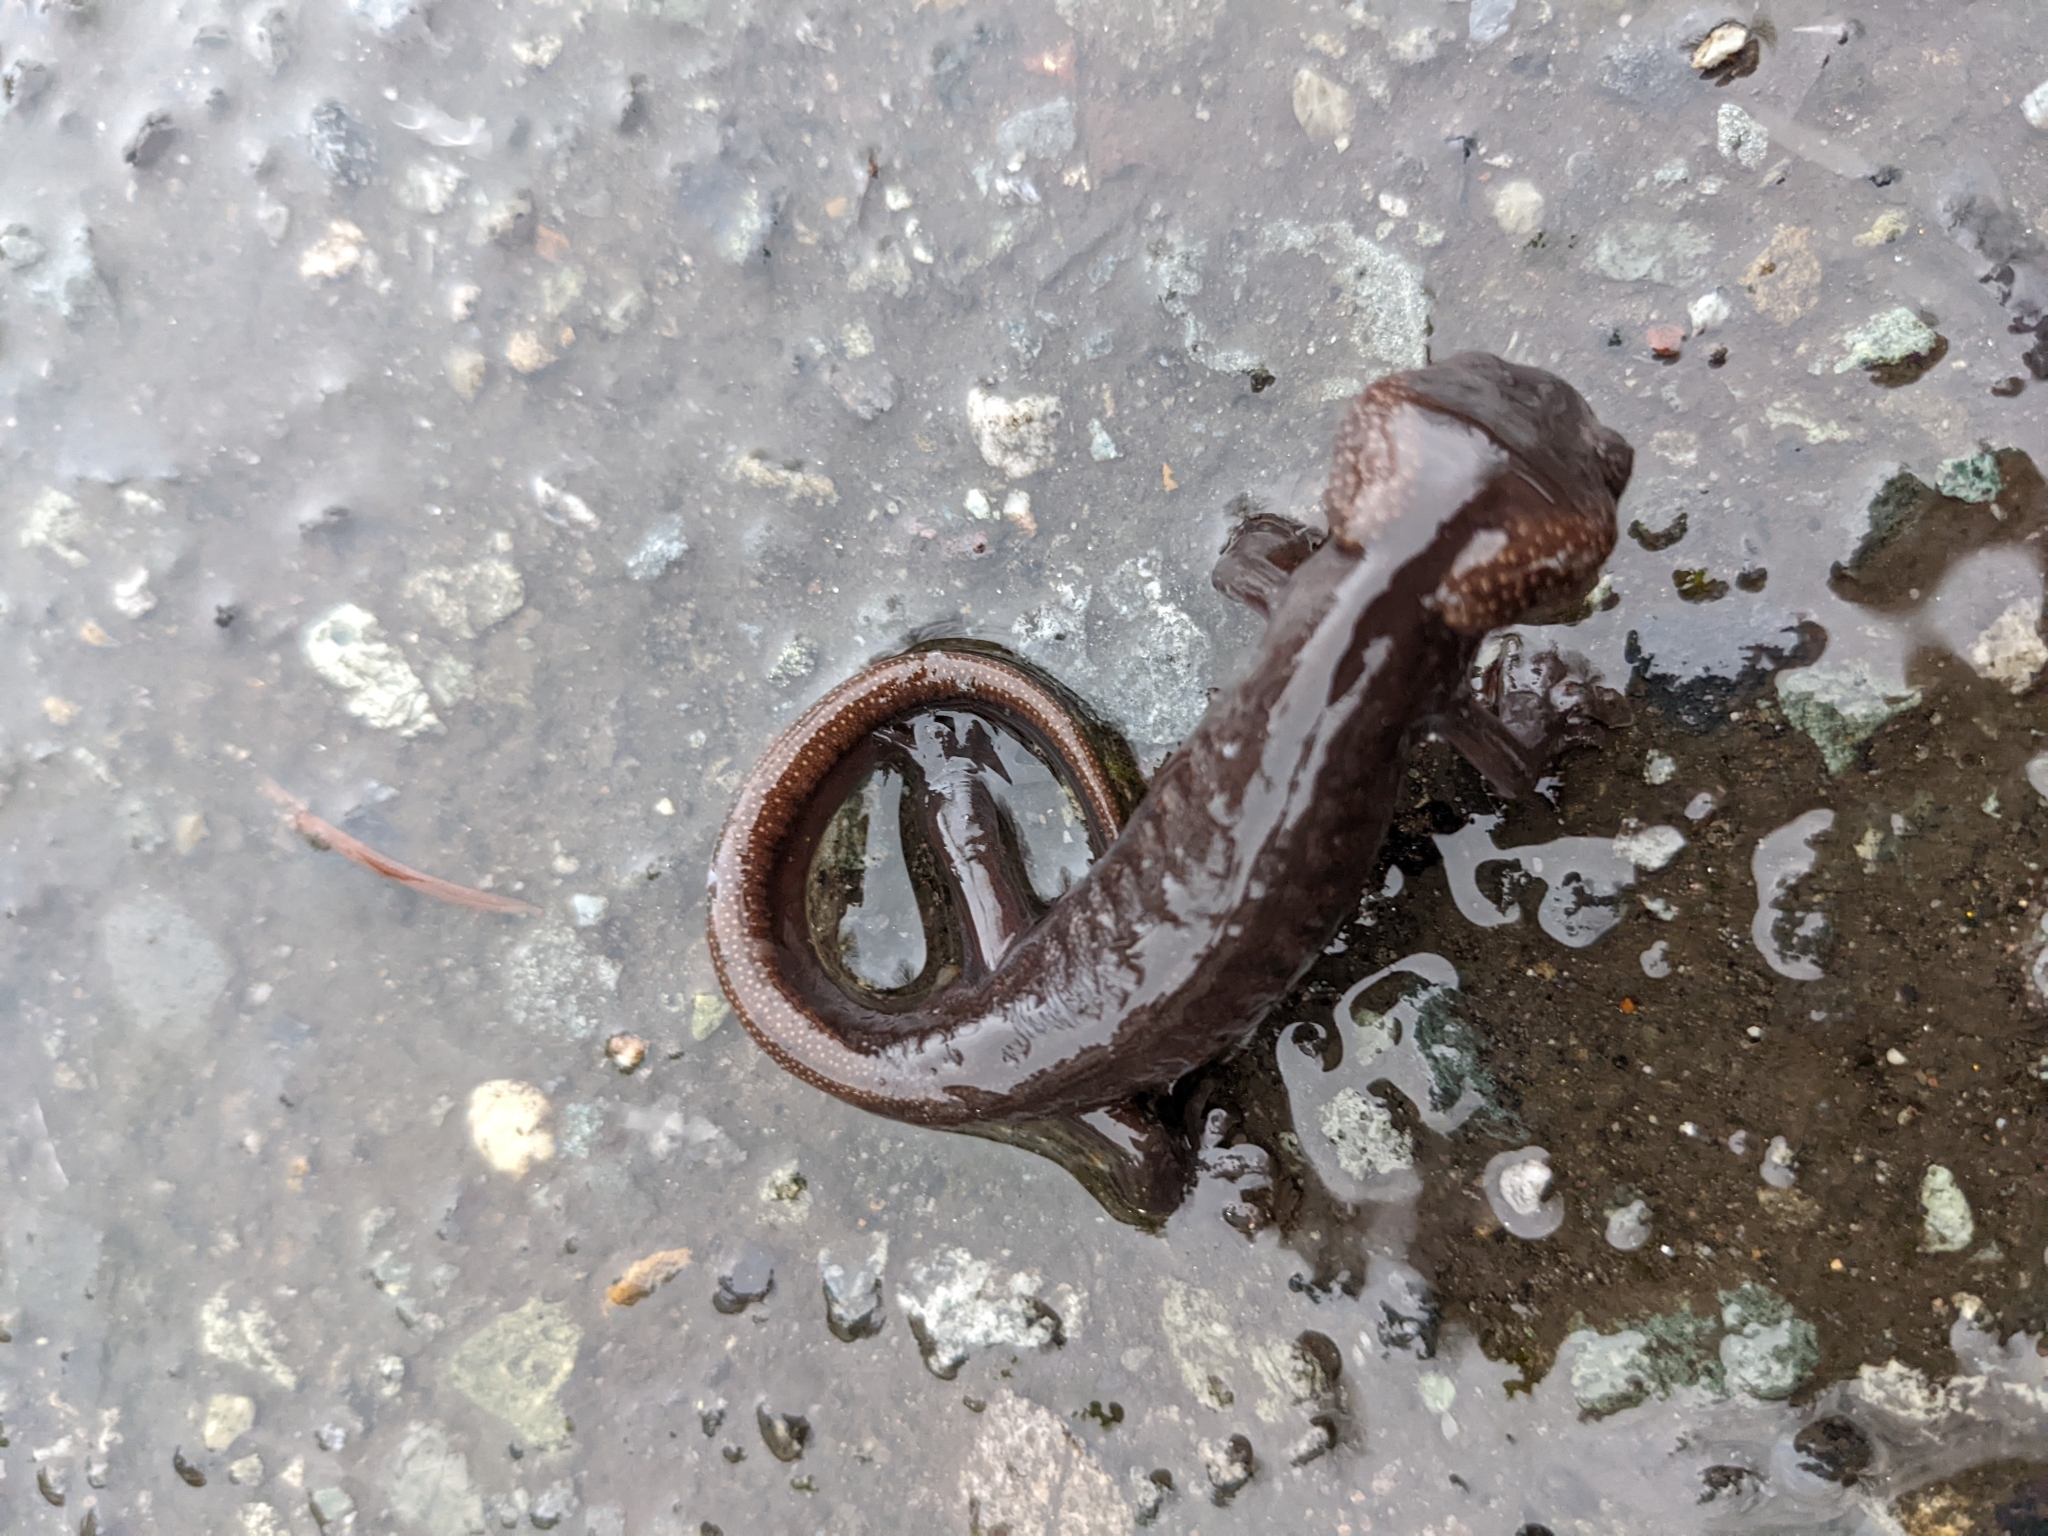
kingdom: Animalia
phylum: Chordata
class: Amphibia
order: Caudata
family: Ambystomatidae
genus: Ambystoma
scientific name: Ambystoma gracile
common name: Northwestern salamander
